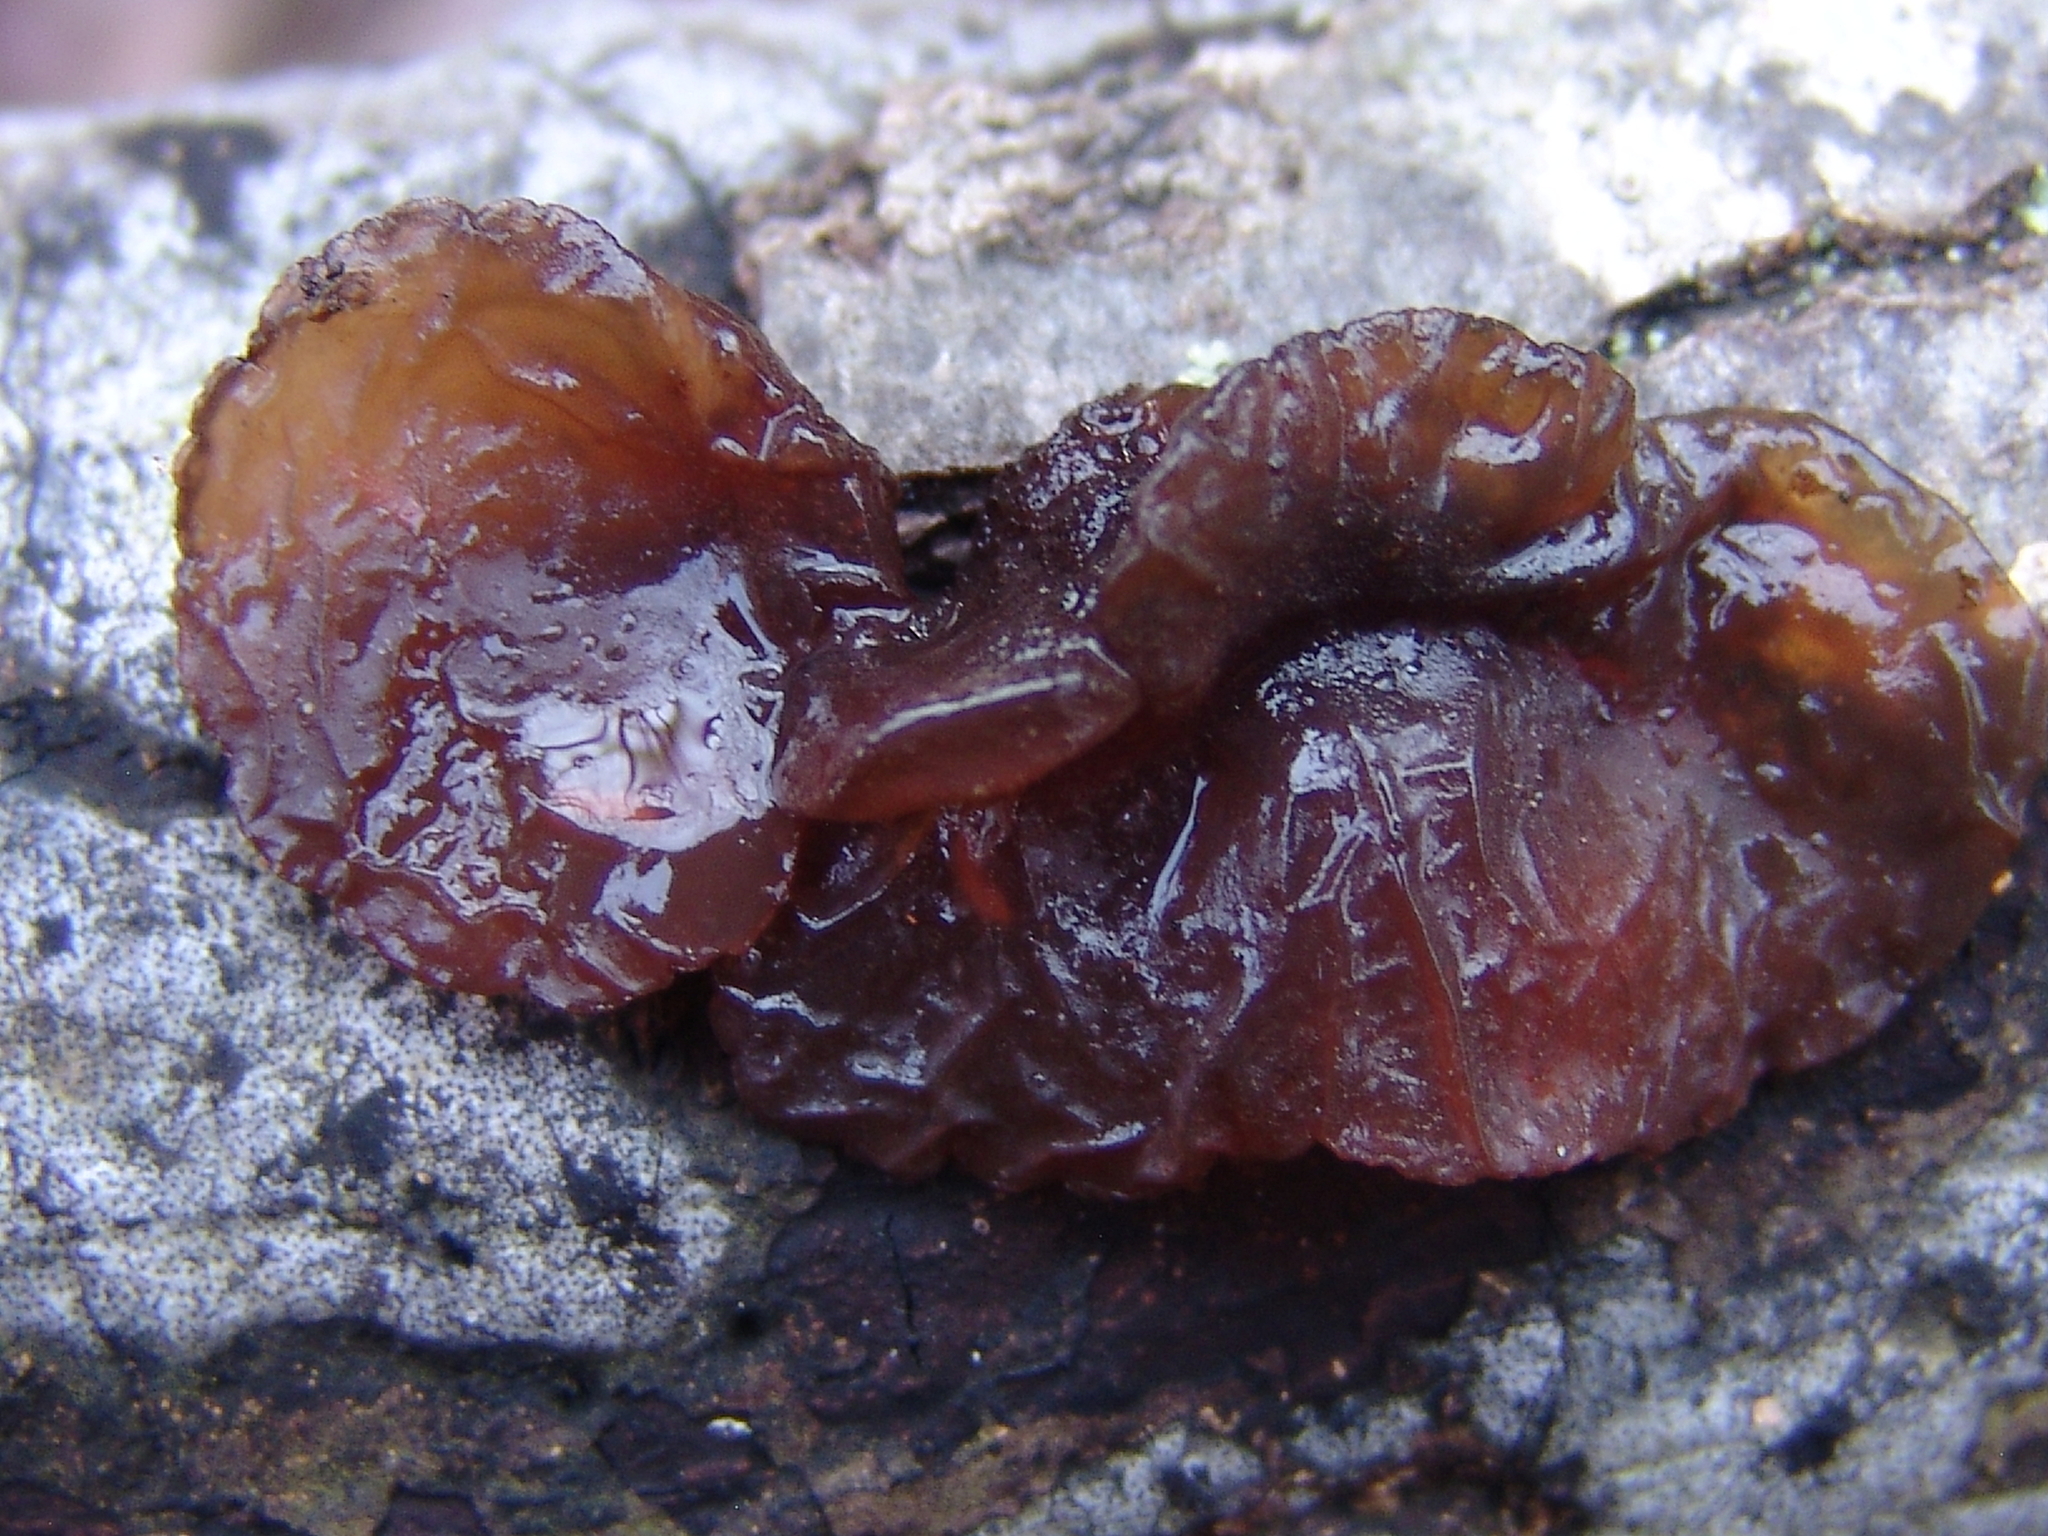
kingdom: Fungi
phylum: Basidiomycota
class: Agaricomycetes
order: Auriculariales
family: Auriculariaceae
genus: Exidia
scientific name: Exidia
